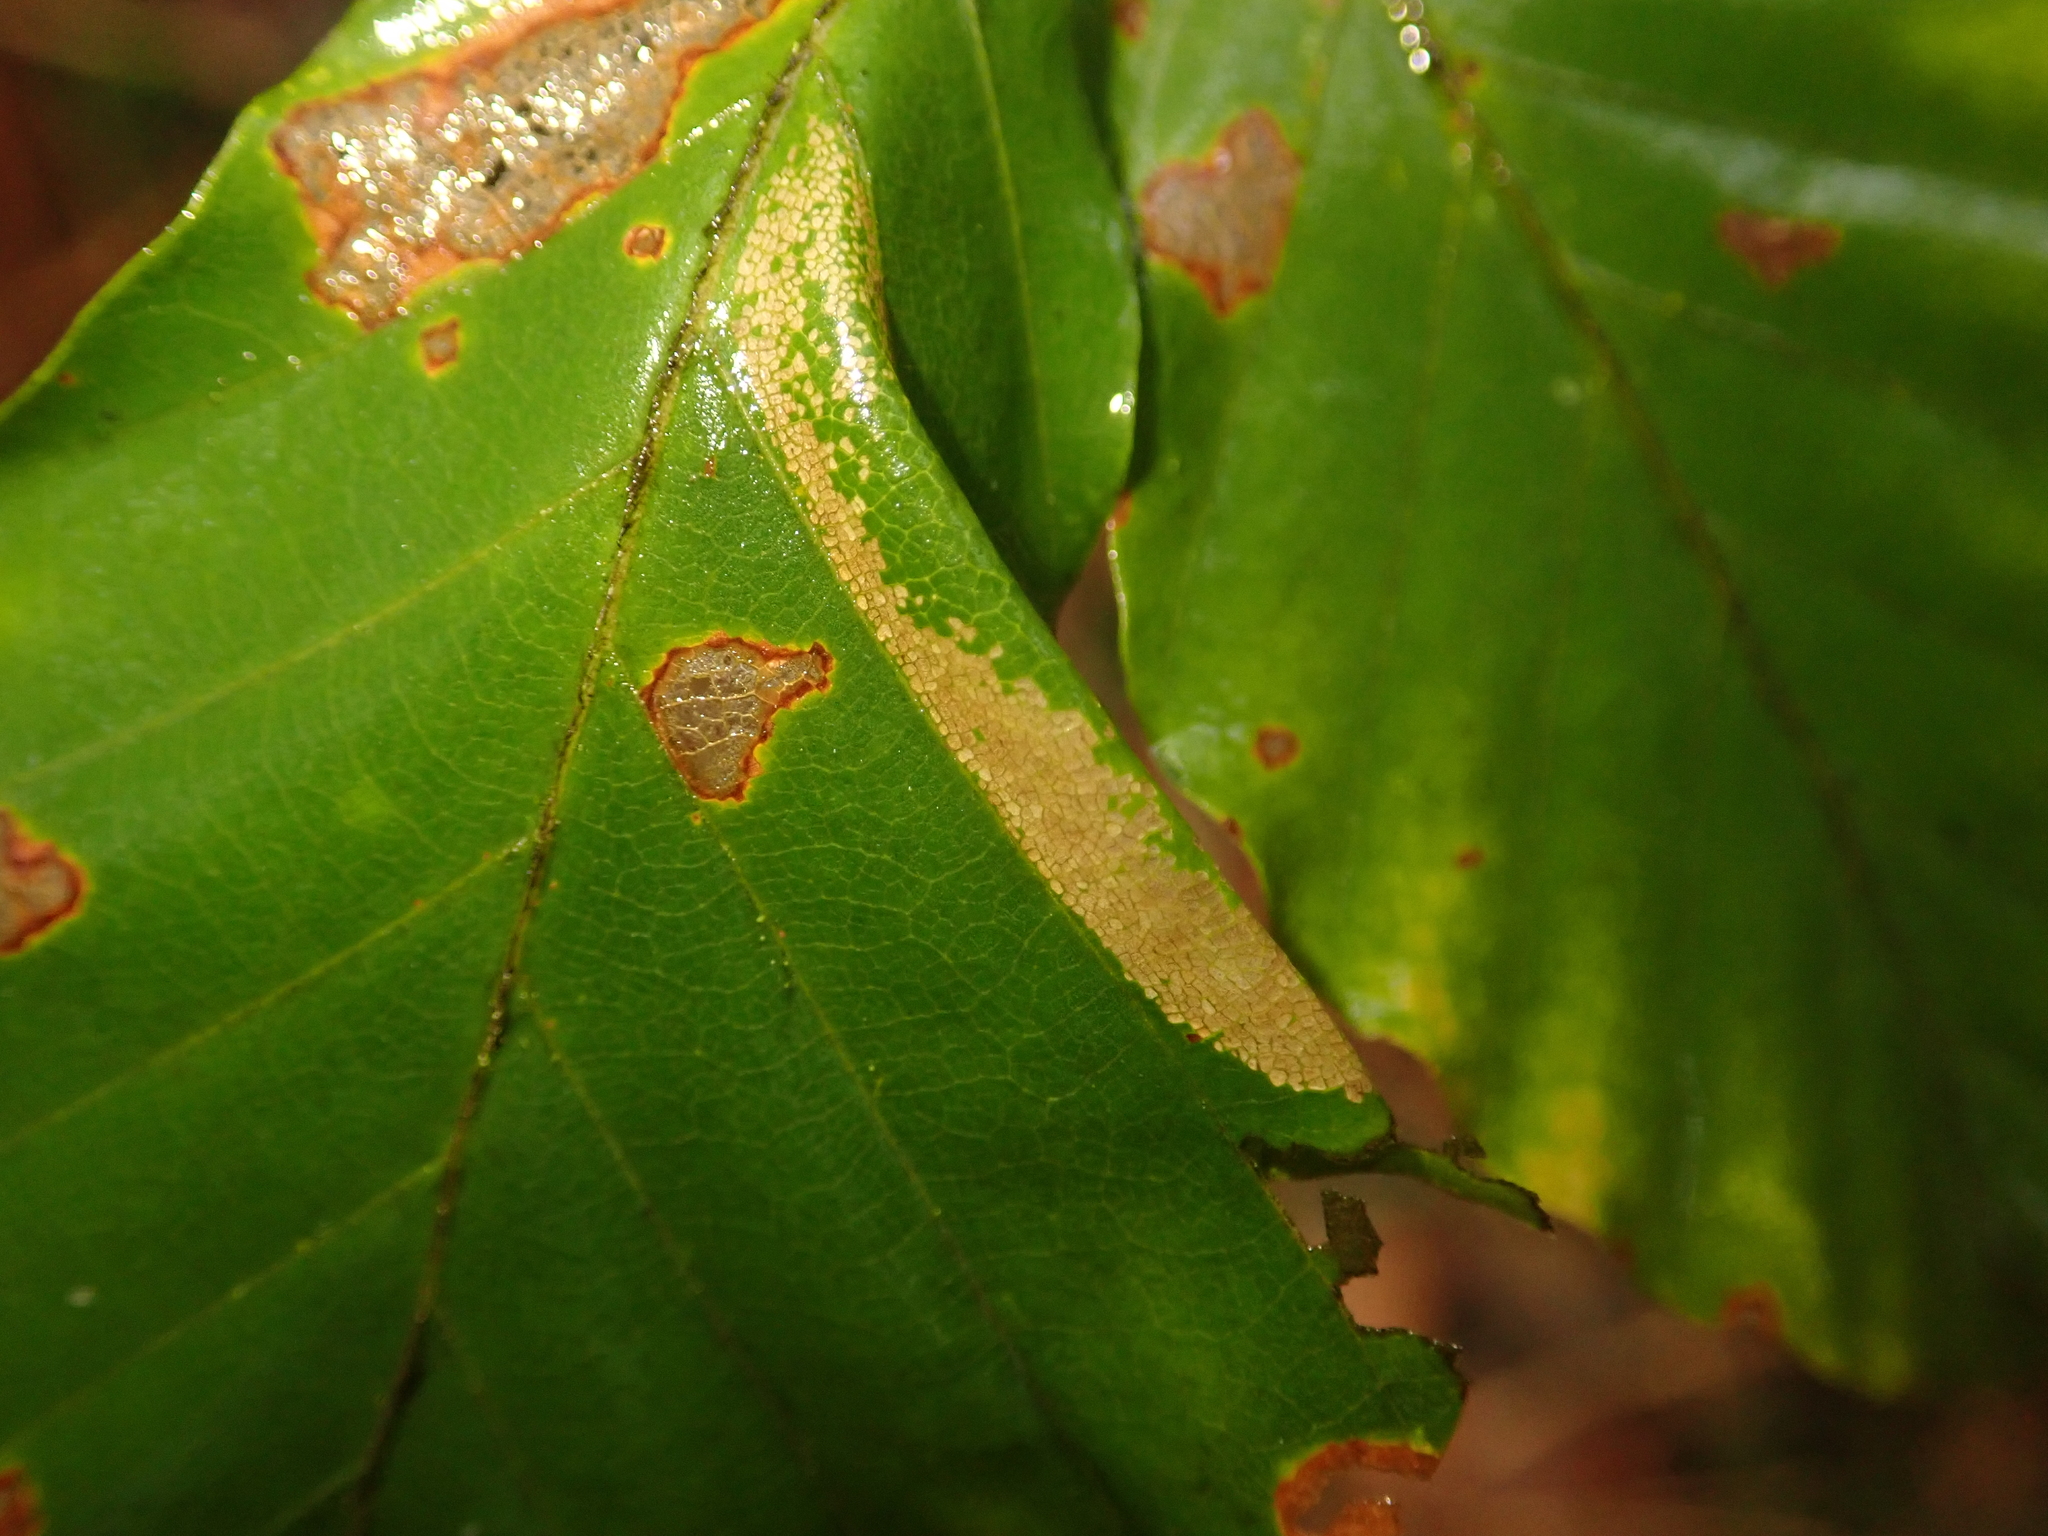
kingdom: Animalia
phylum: Arthropoda
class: Insecta
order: Lepidoptera
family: Gracillariidae
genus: Phyllonorycter
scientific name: Phyllonorycter maestingella
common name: Beech midget
